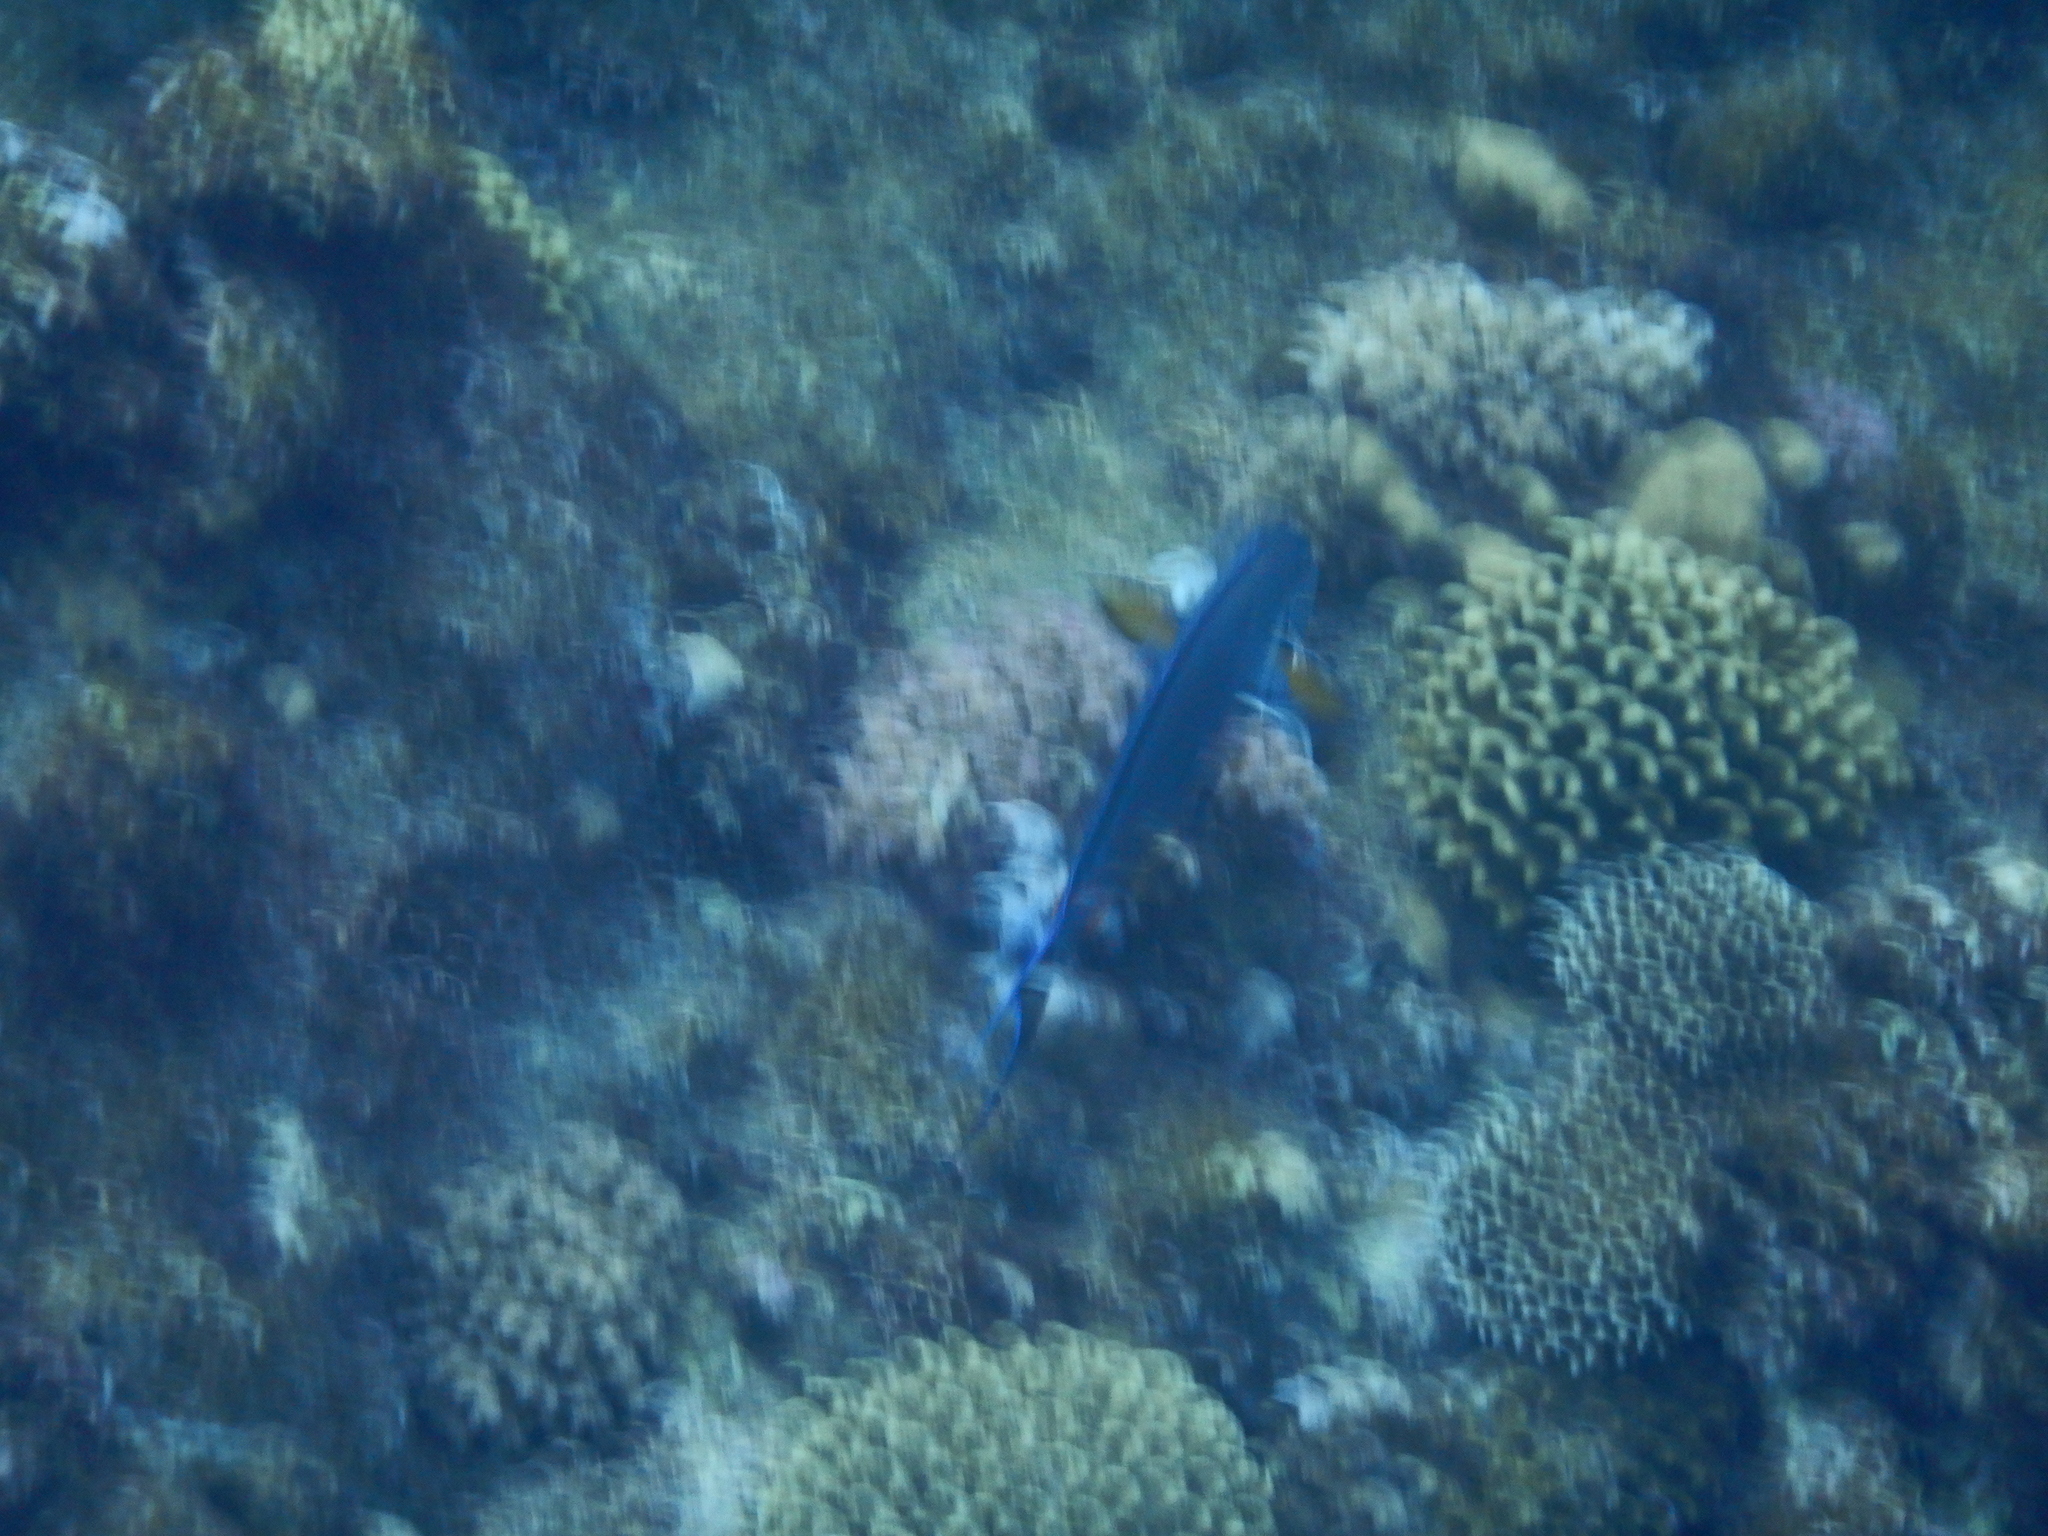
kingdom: Animalia
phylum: Chordata
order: Perciformes
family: Acanthuridae
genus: Acanthurus
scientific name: Acanthurus sohal
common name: Red sea surgeonfish
